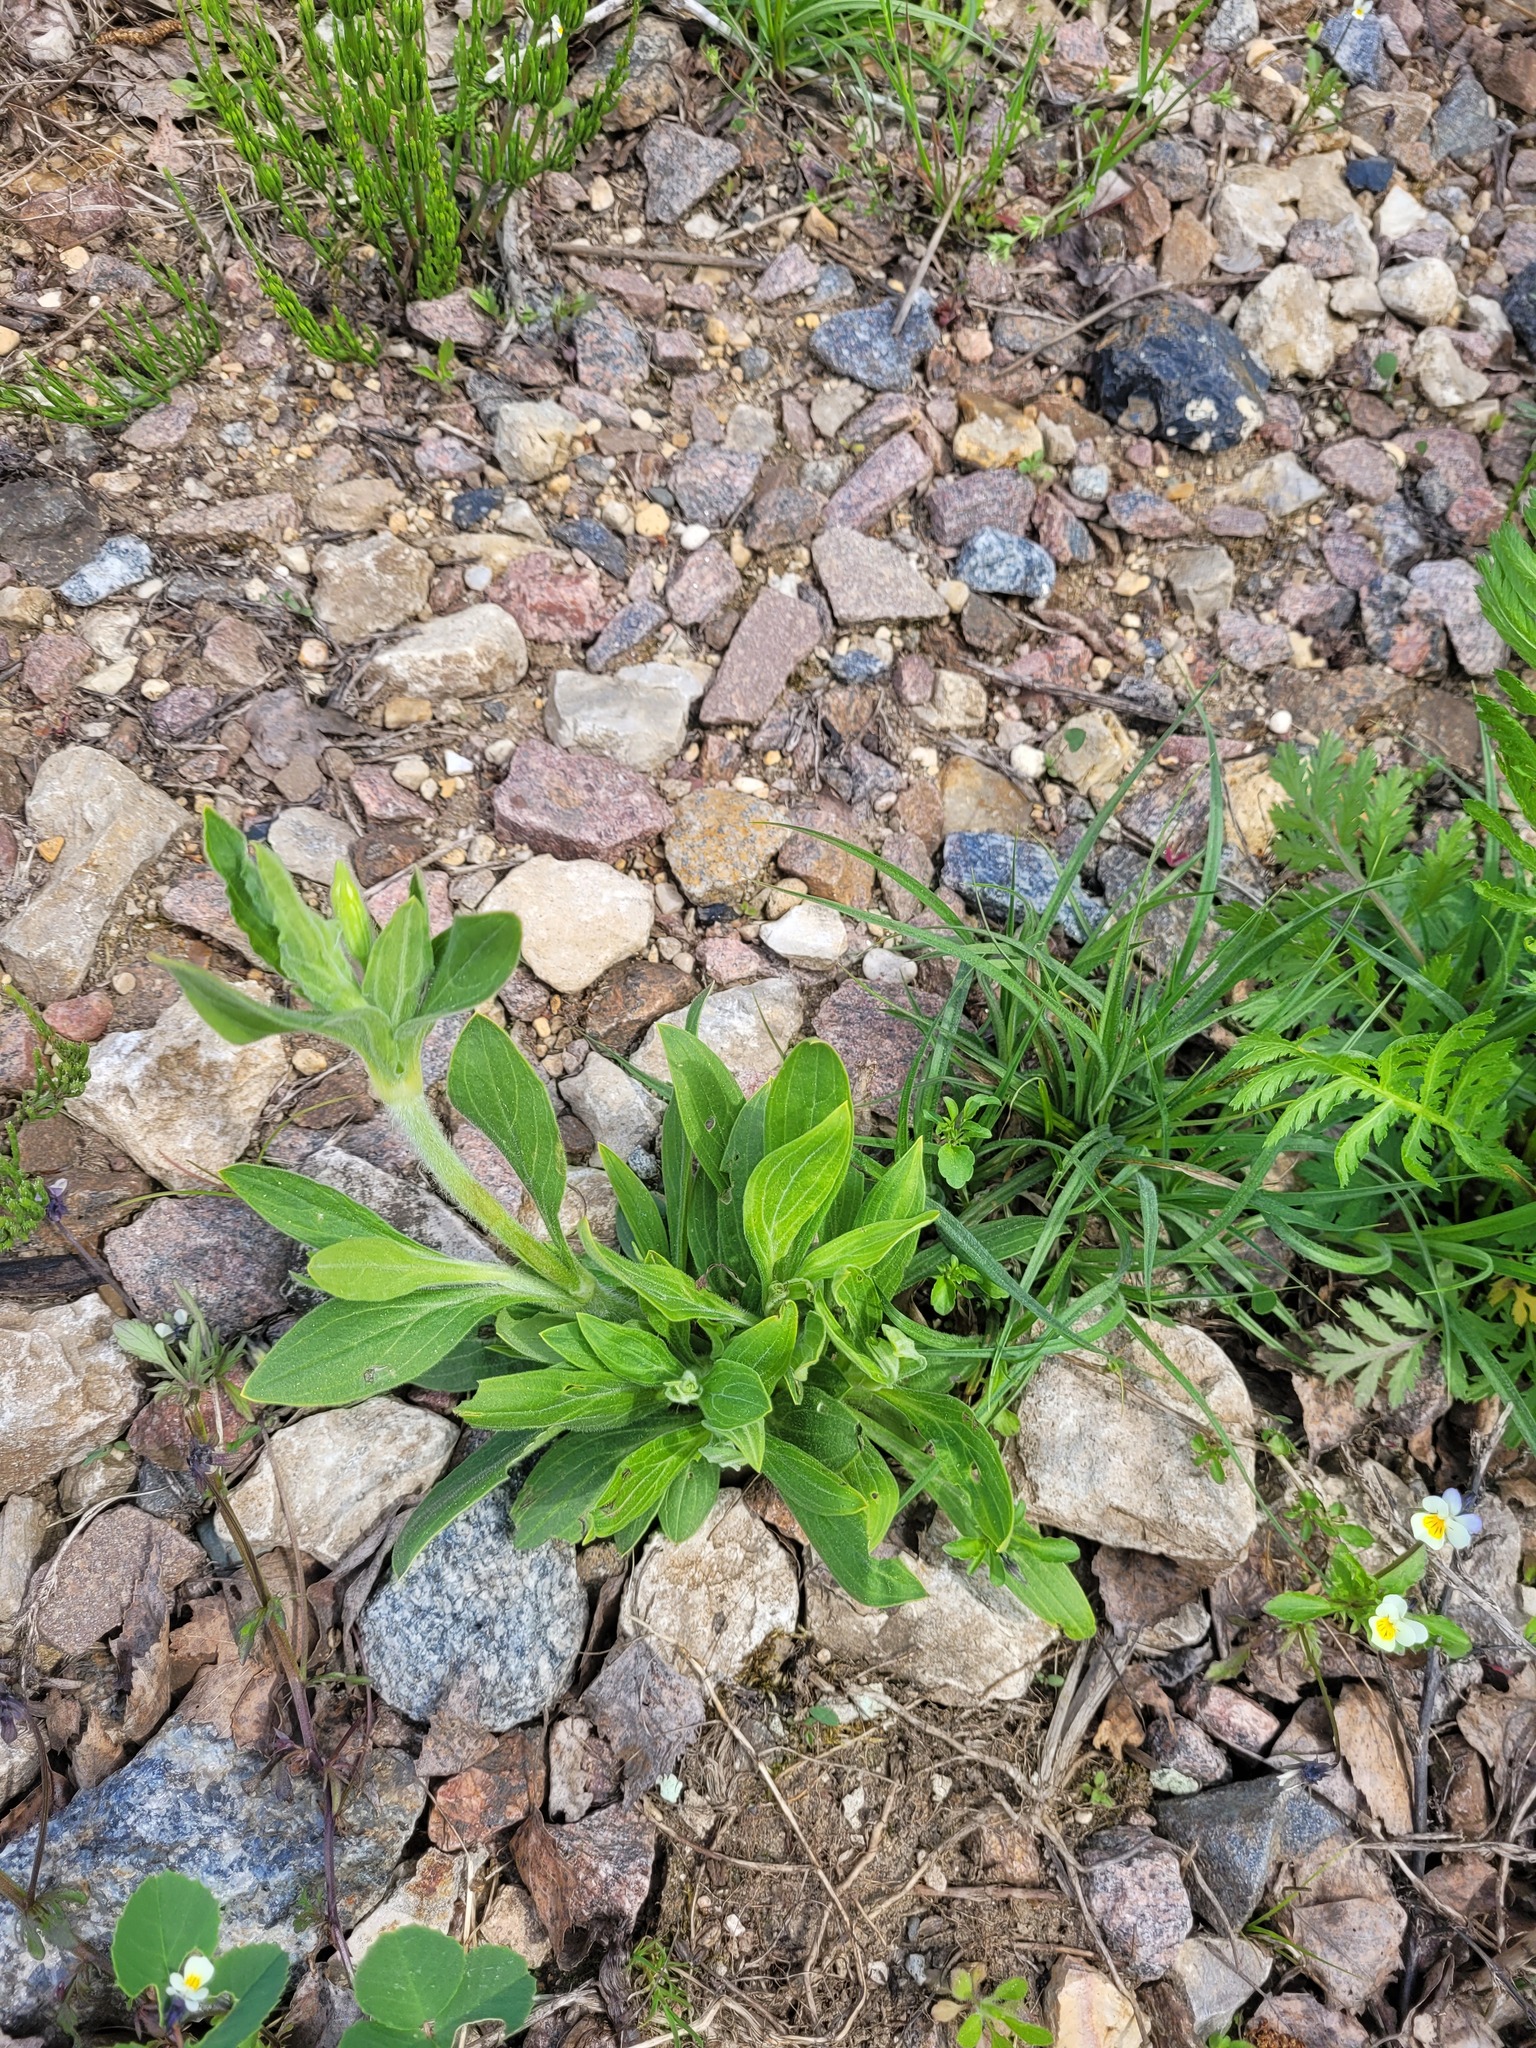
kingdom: Plantae
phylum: Tracheophyta
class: Magnoliopsida
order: Caryophyllales
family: Caryophyllaceae
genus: Silene
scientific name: Silene latifolia
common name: White campion
